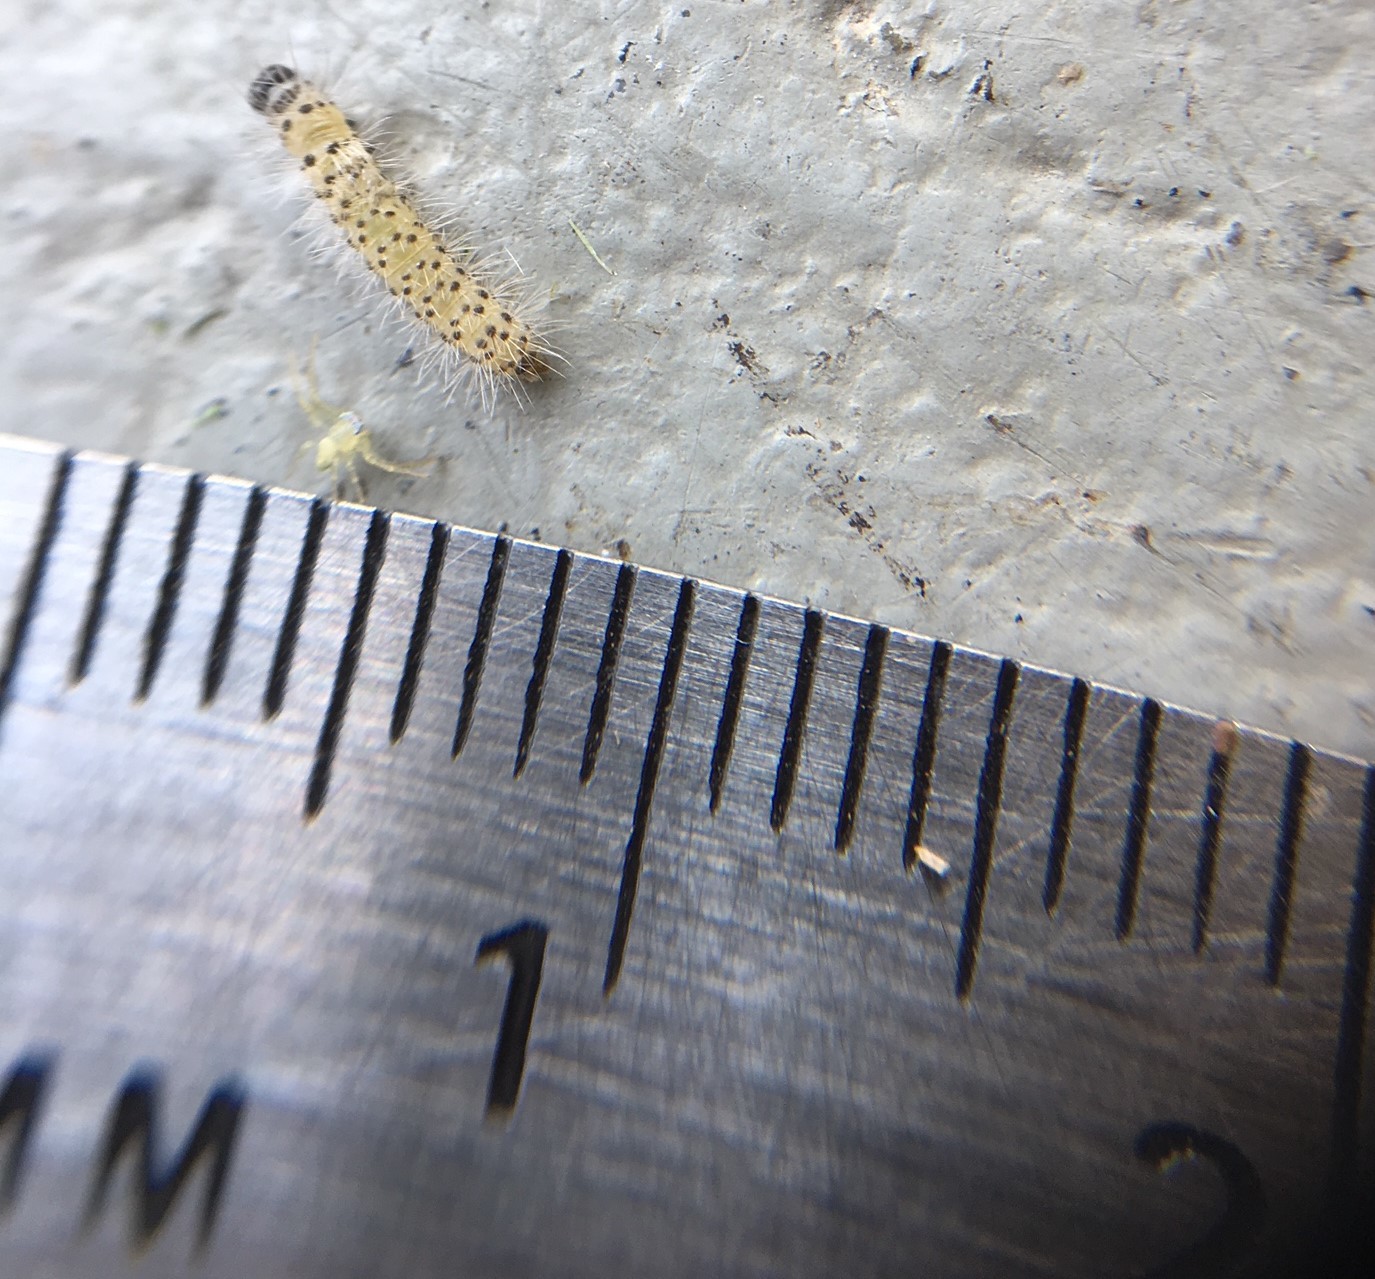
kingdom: Animalia
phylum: Arthropoda
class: Insecta
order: Lepidoptera
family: Erebidae
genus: Euchaetes
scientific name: Euchaetes egle
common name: Milkweed tussock moth
